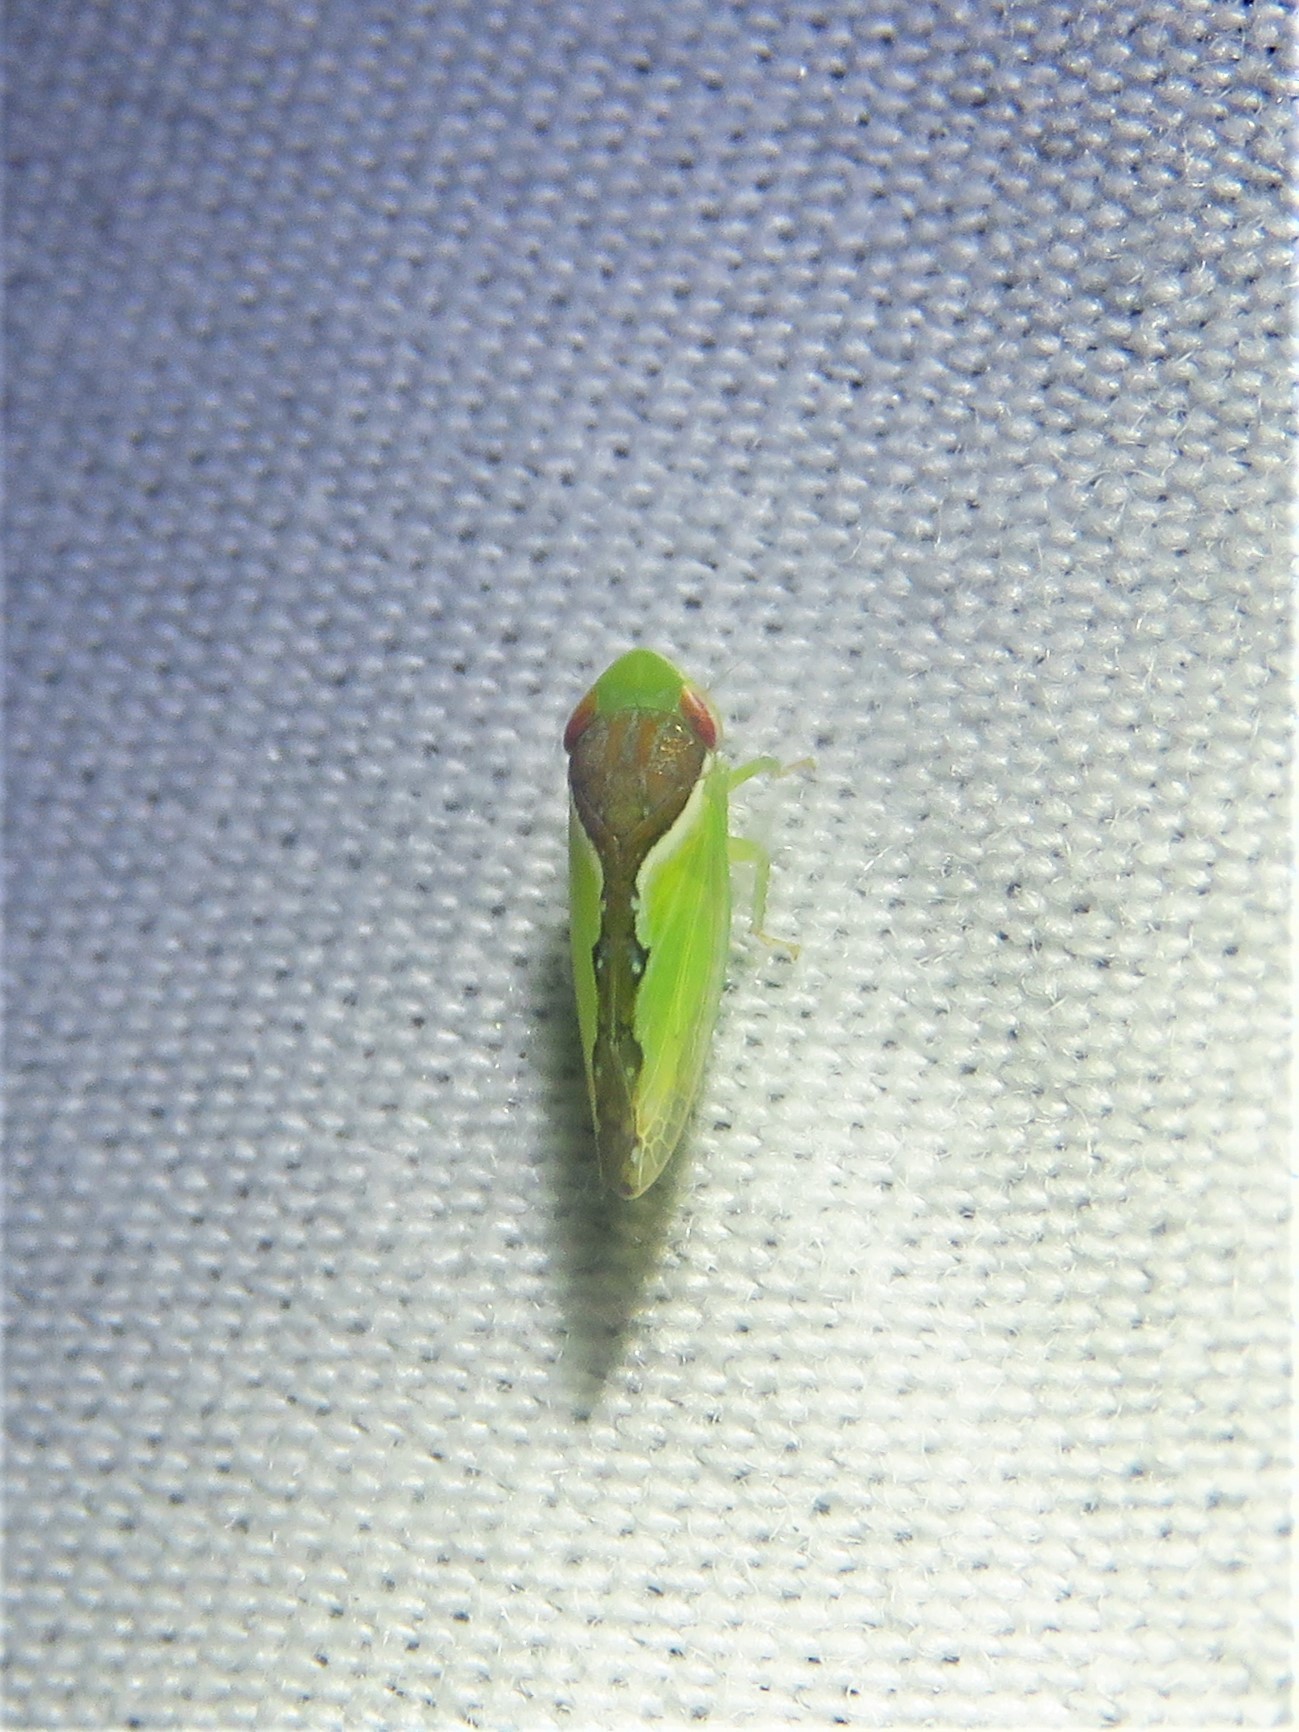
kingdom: Animalia
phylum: Arthropoda
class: Insecta
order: Hemiptera
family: Cicadellidae
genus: Omansobara ing
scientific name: Omansobara ing Omansobara palliolata
